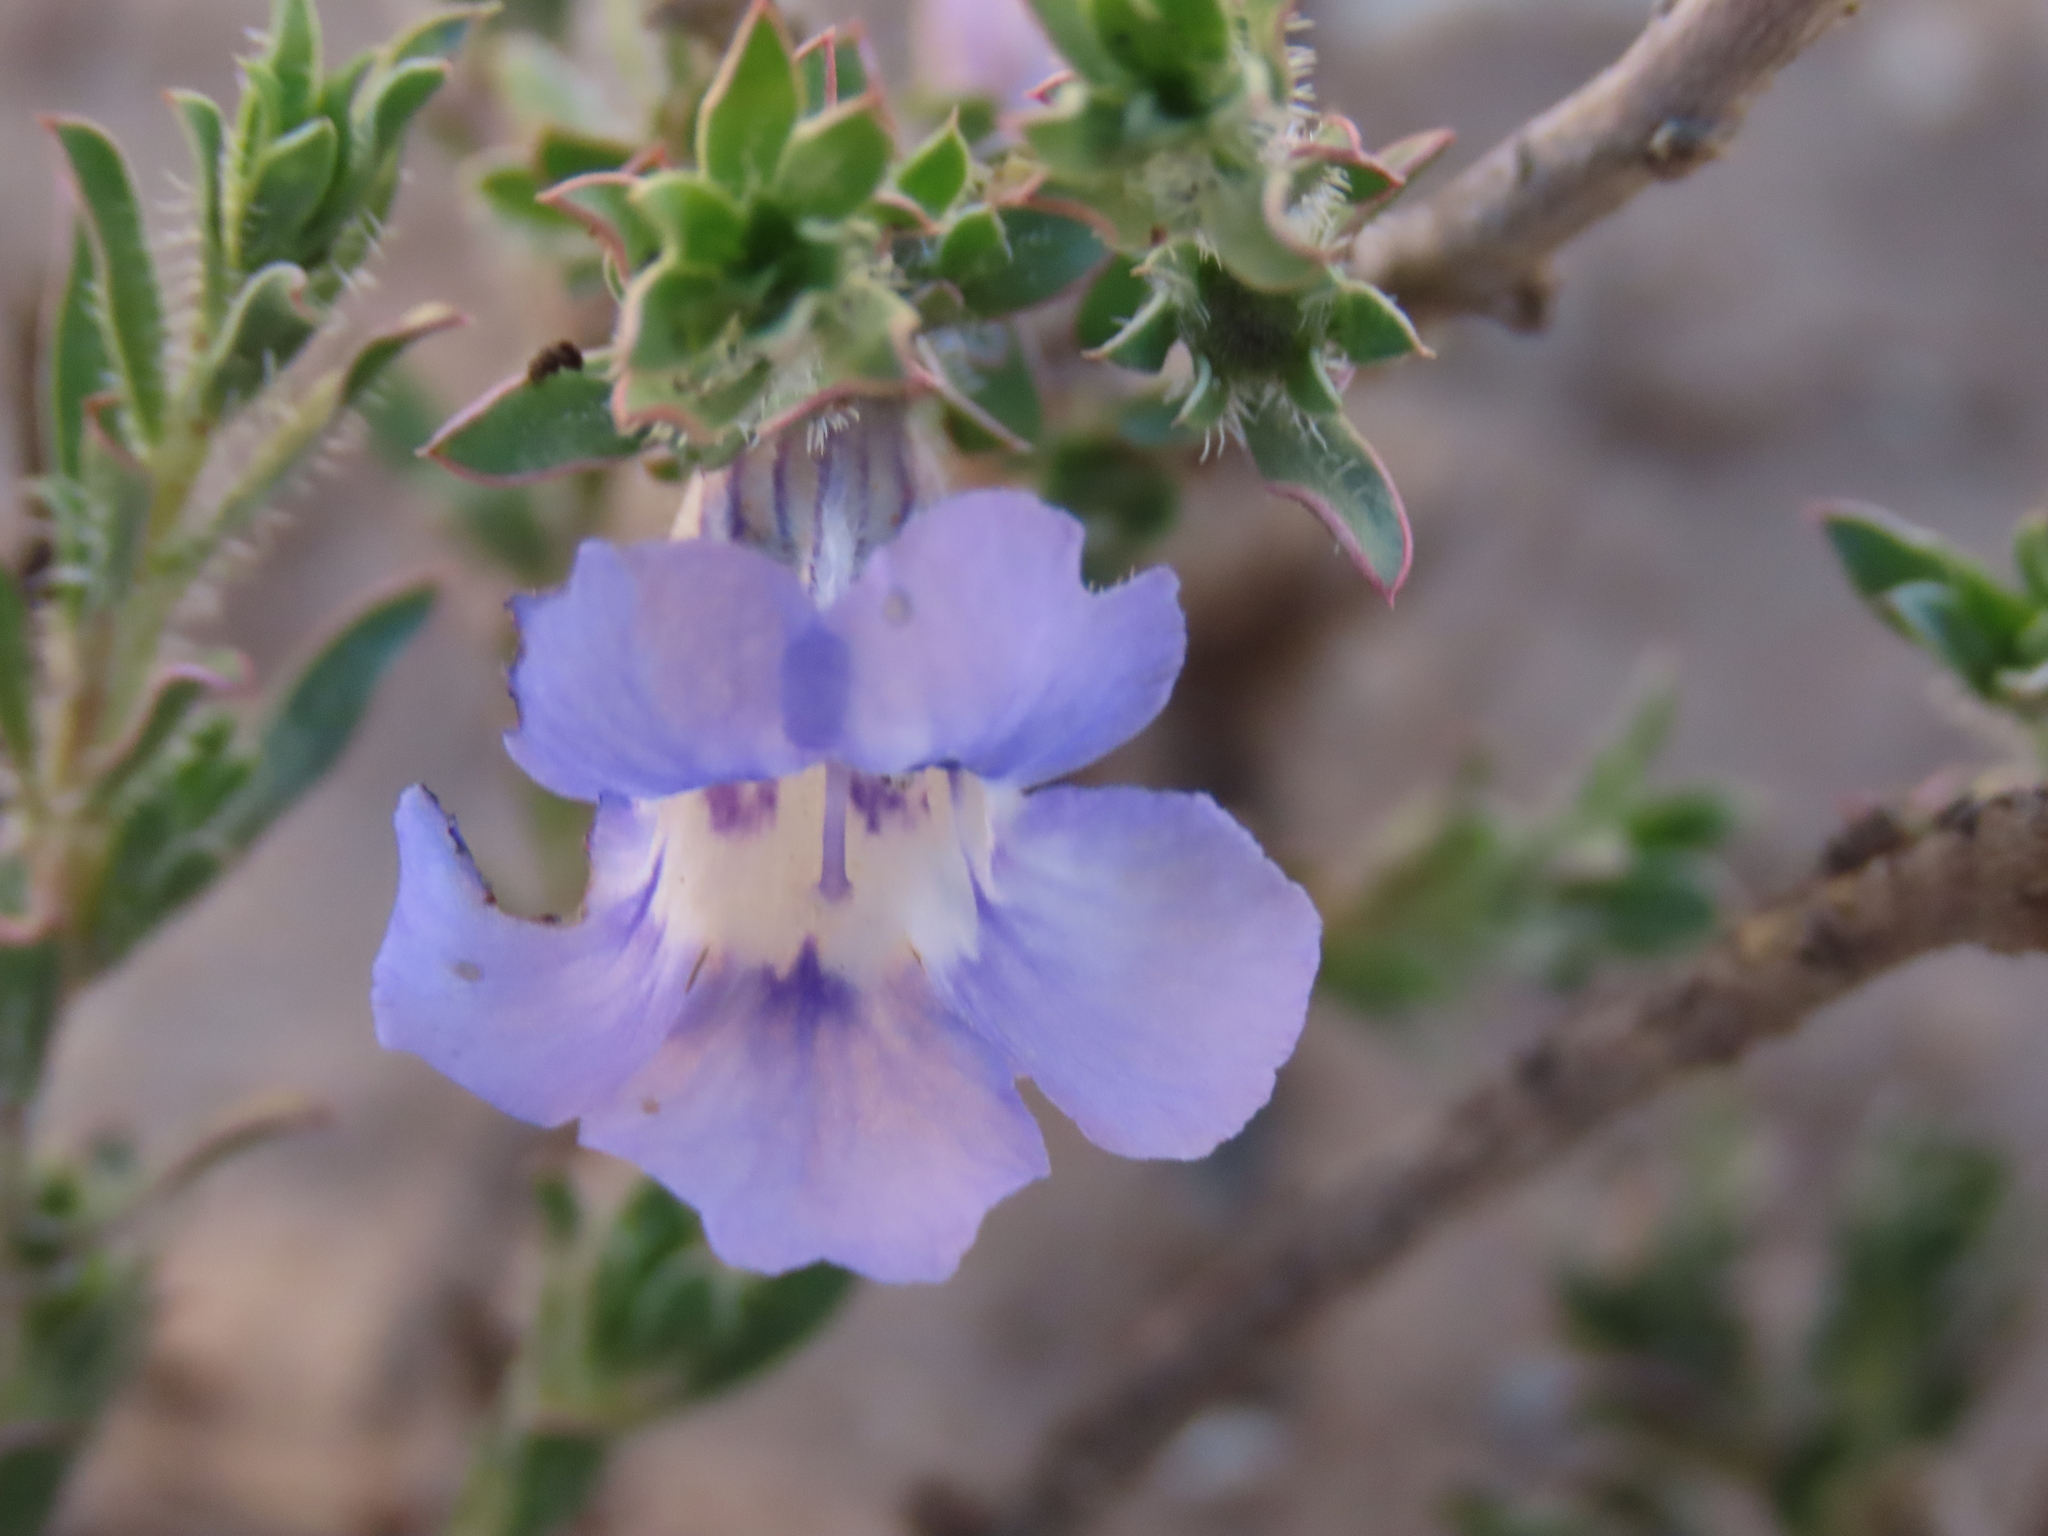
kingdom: Plantae
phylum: Tracheophyta
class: Magnoliopsida
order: Lamiales
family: Scrophulariaceae
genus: Aptosimum
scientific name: Aptosimum albomarginatum
